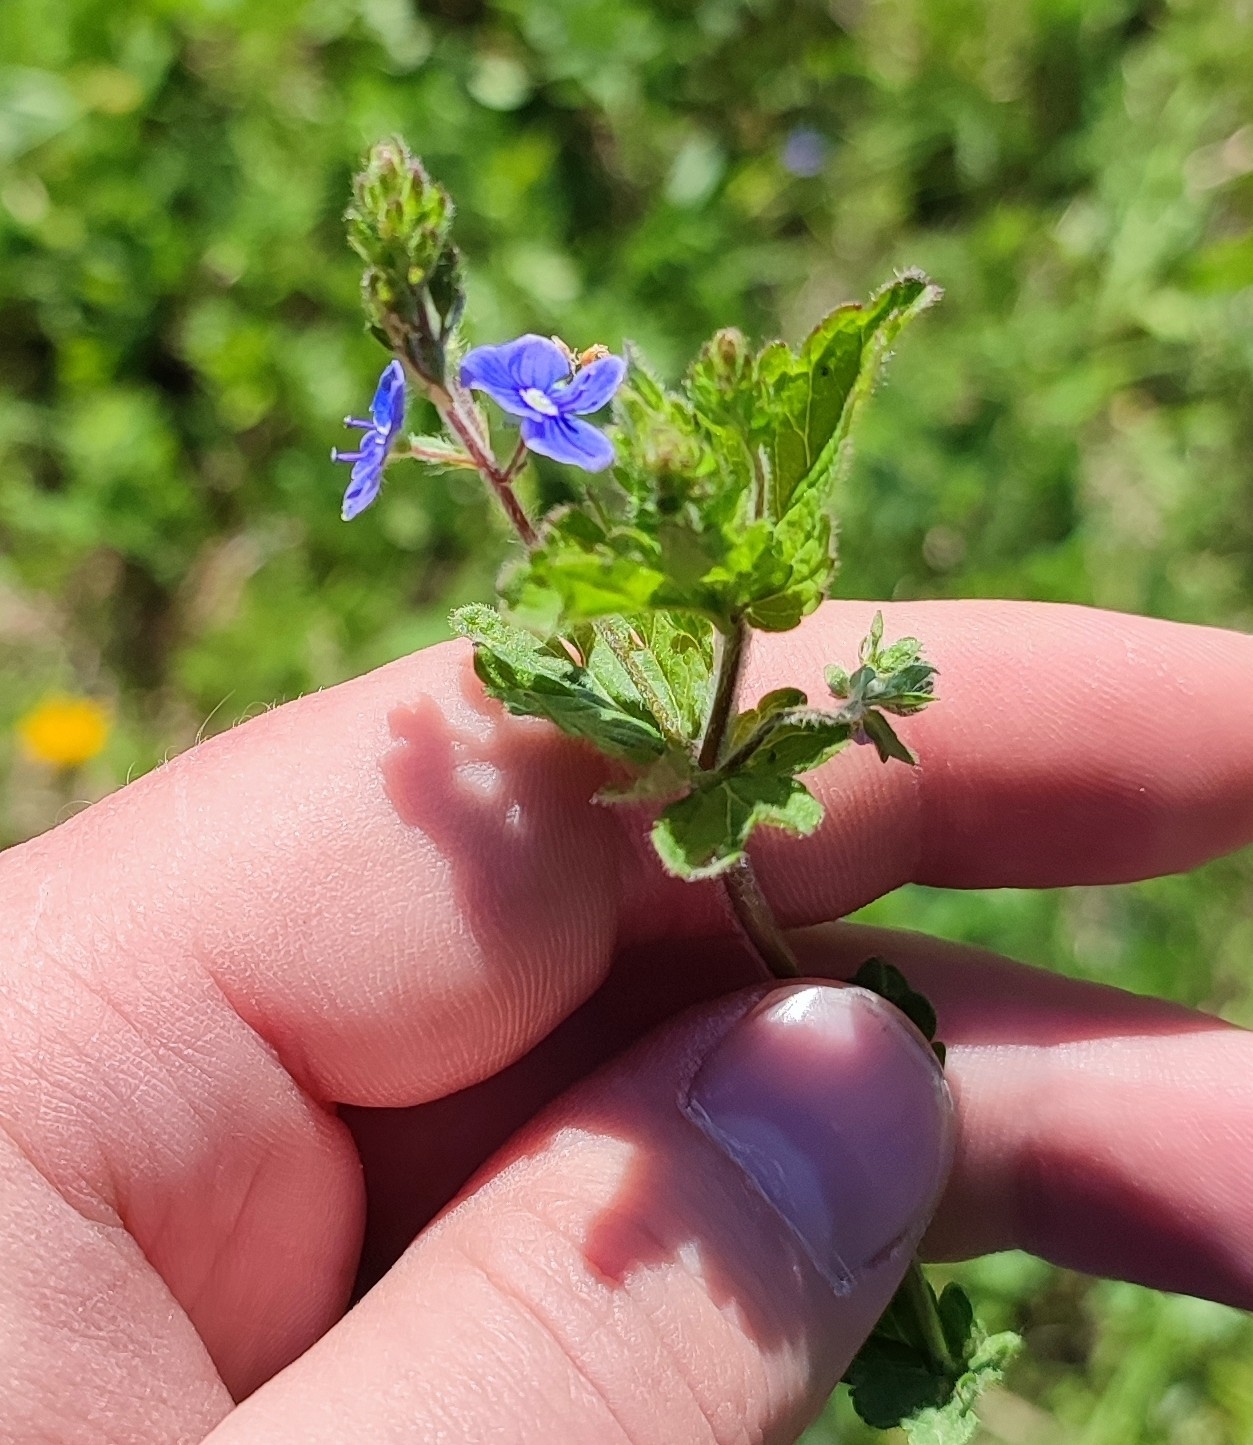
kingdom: Plantae
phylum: Tracheophyta
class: Magnoliopsida
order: Lamiales
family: Plantaginaceae
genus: Veronica
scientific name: Veronica chamaedrys
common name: Germander speedwell
